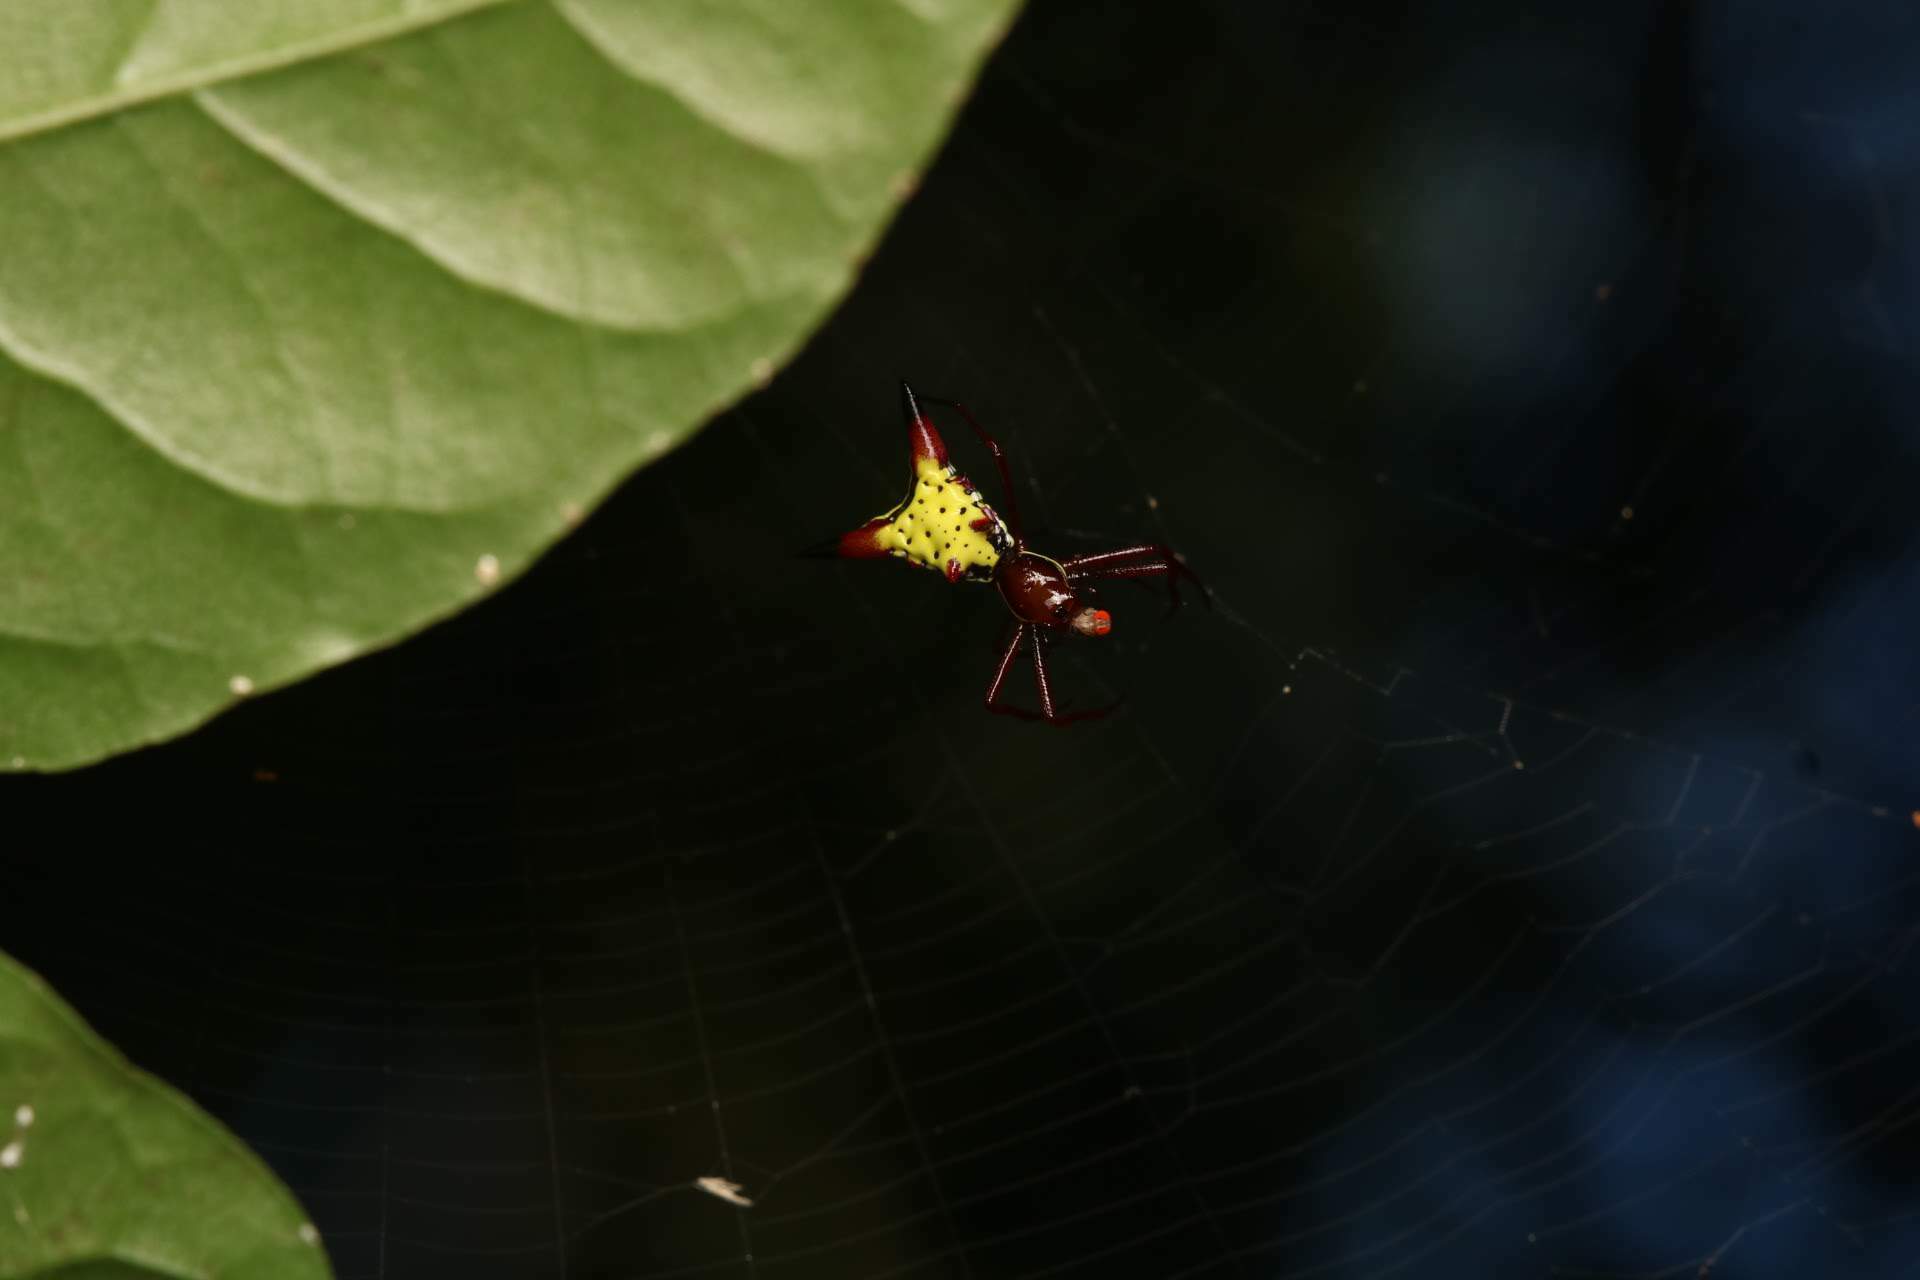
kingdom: Animalia
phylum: Arthropoda
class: Arachnida
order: Araneae
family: Araneidae
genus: Micrathena
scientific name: Micrathena sagittata
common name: Orb weavers
